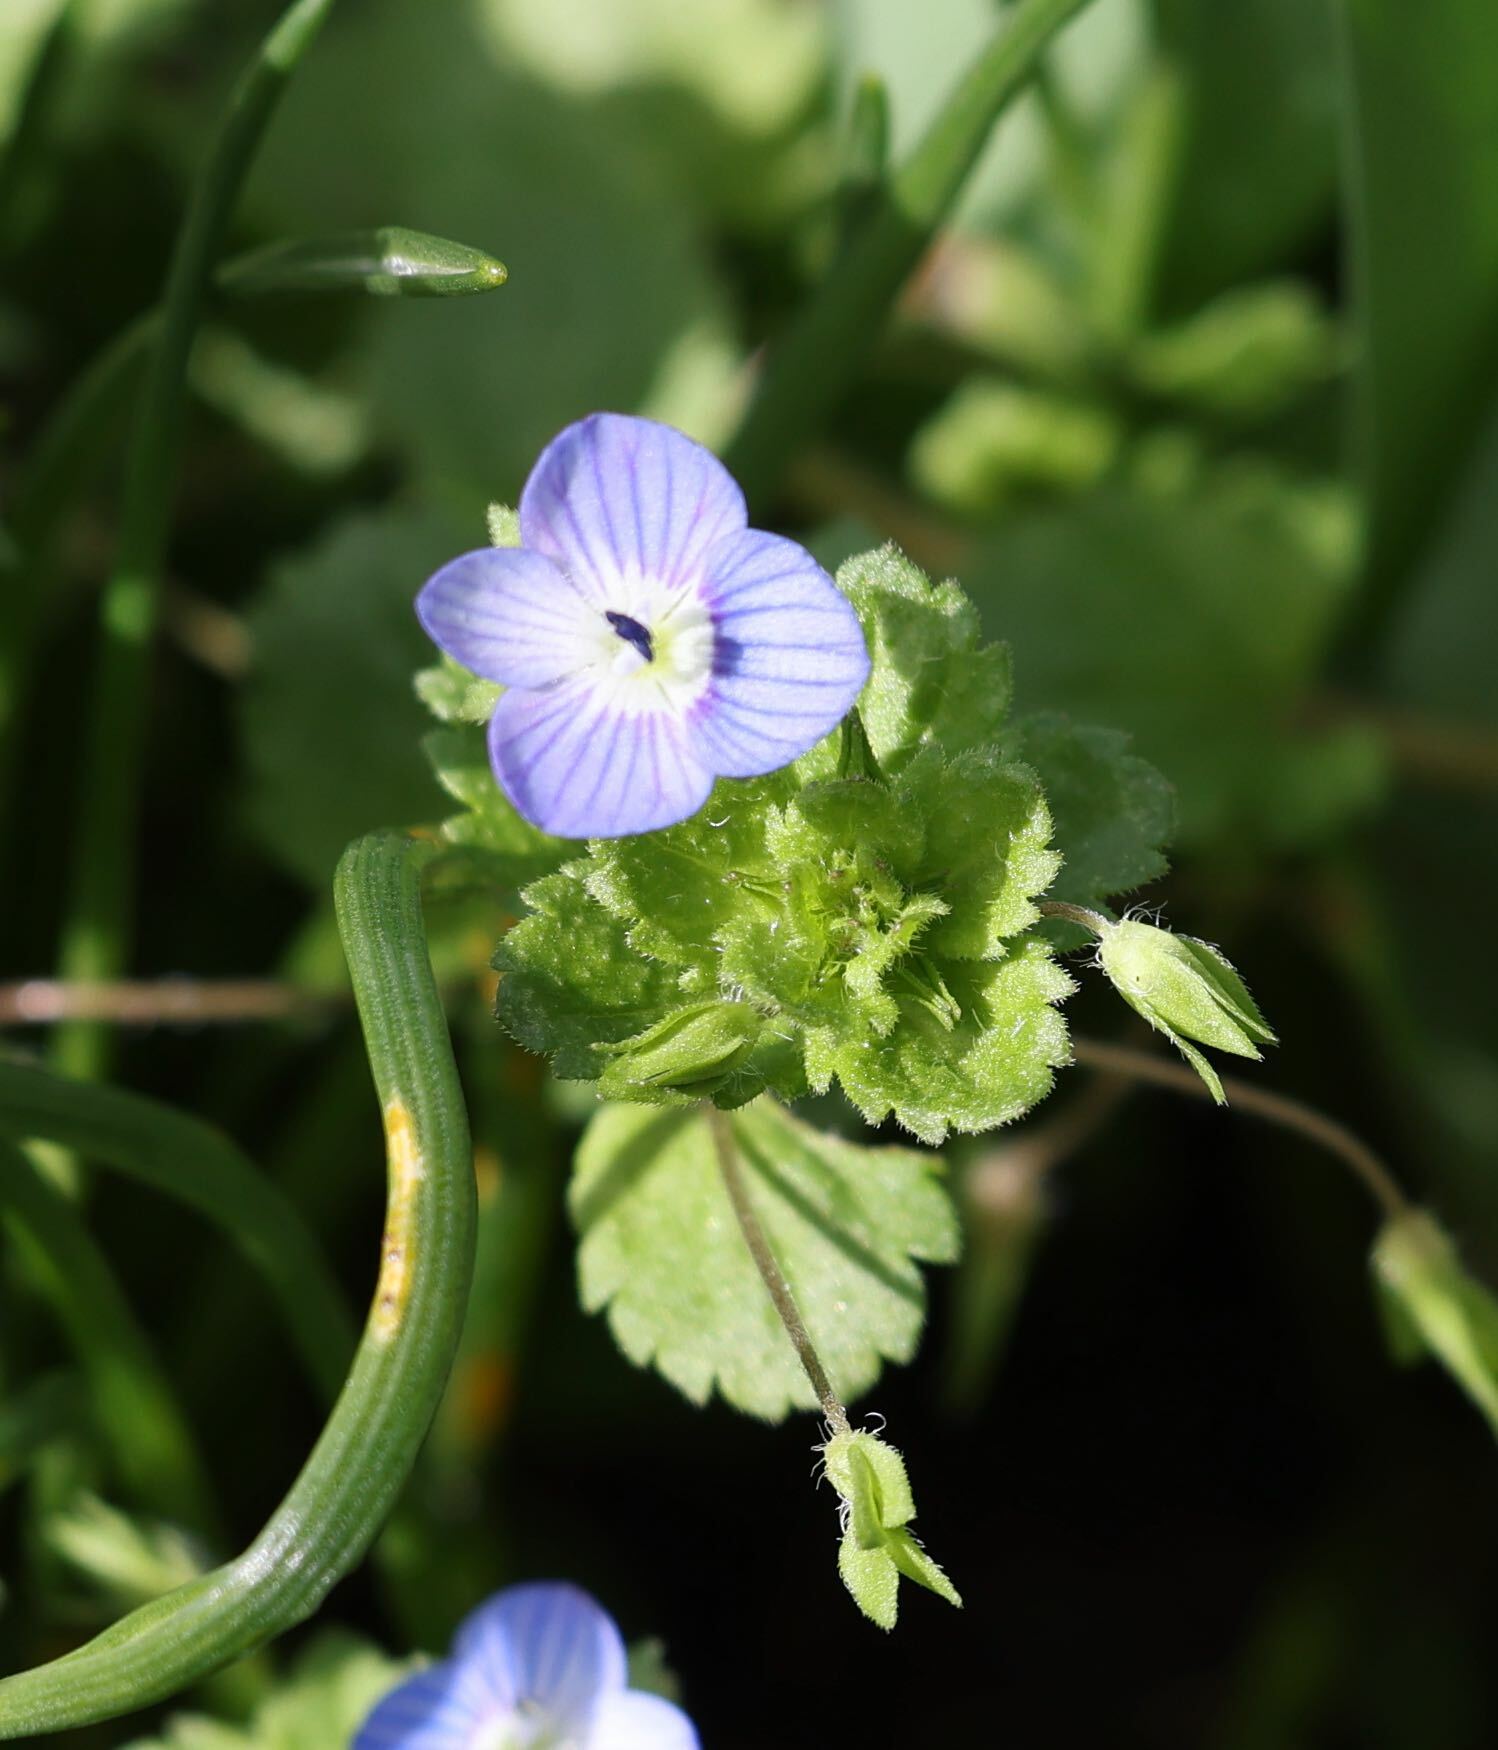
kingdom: Plantae
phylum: Tracheophyta
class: Magnoliopsida
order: Lamiales
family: Plantaginaceae
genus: Veronica
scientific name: Veronica persica
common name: Common field-speedwell
